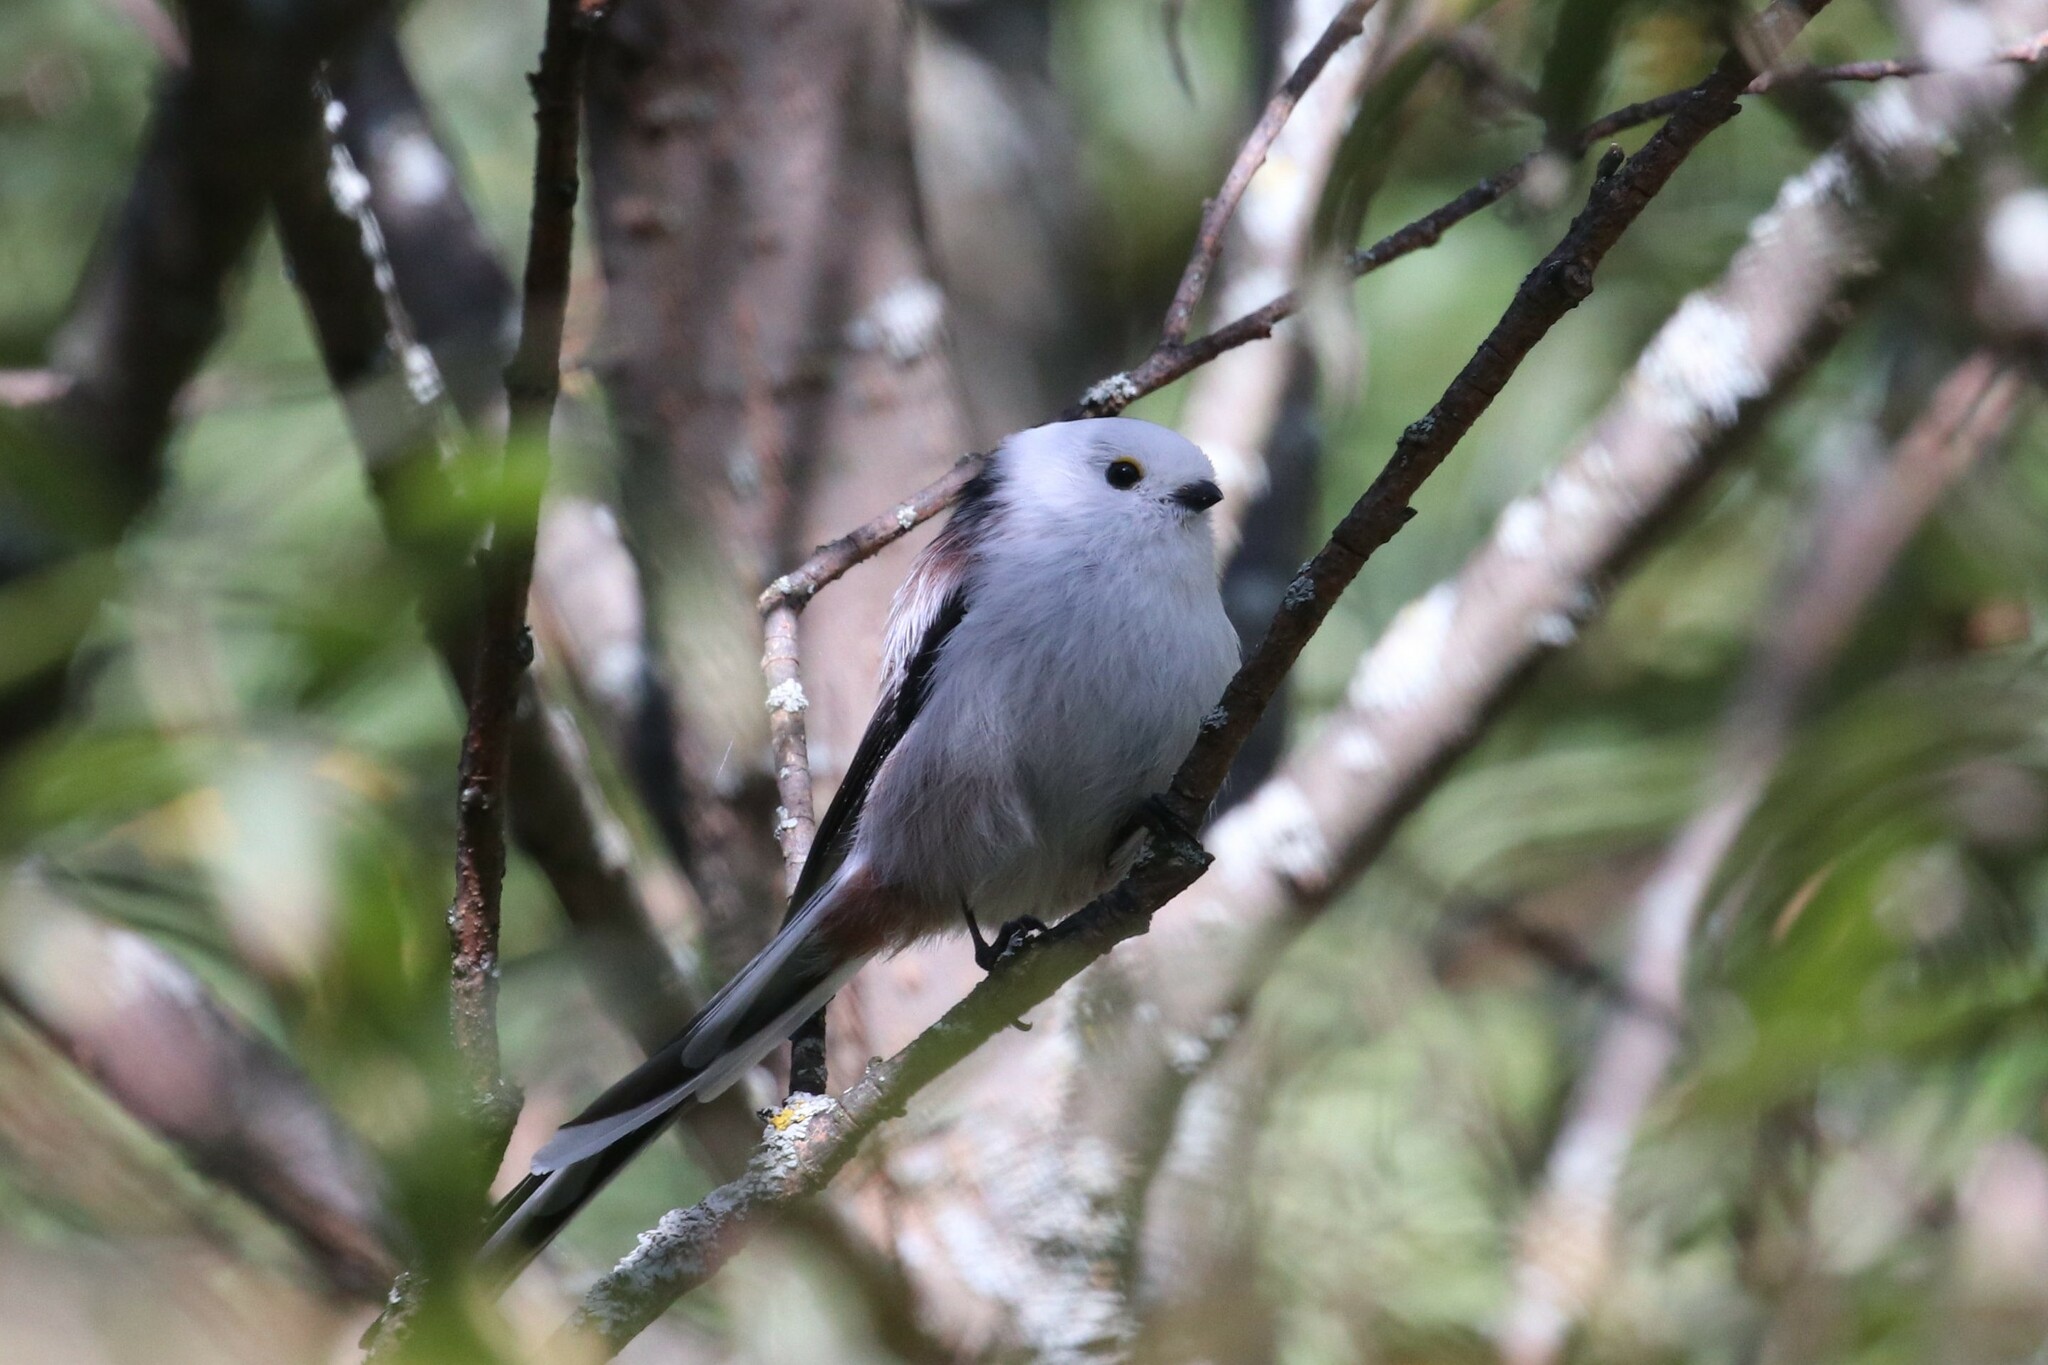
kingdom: Animalia
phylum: Chordata
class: Aves
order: Passeriformes
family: Aegithalidae
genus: Aegithalos
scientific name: Aegithalos caudatus
